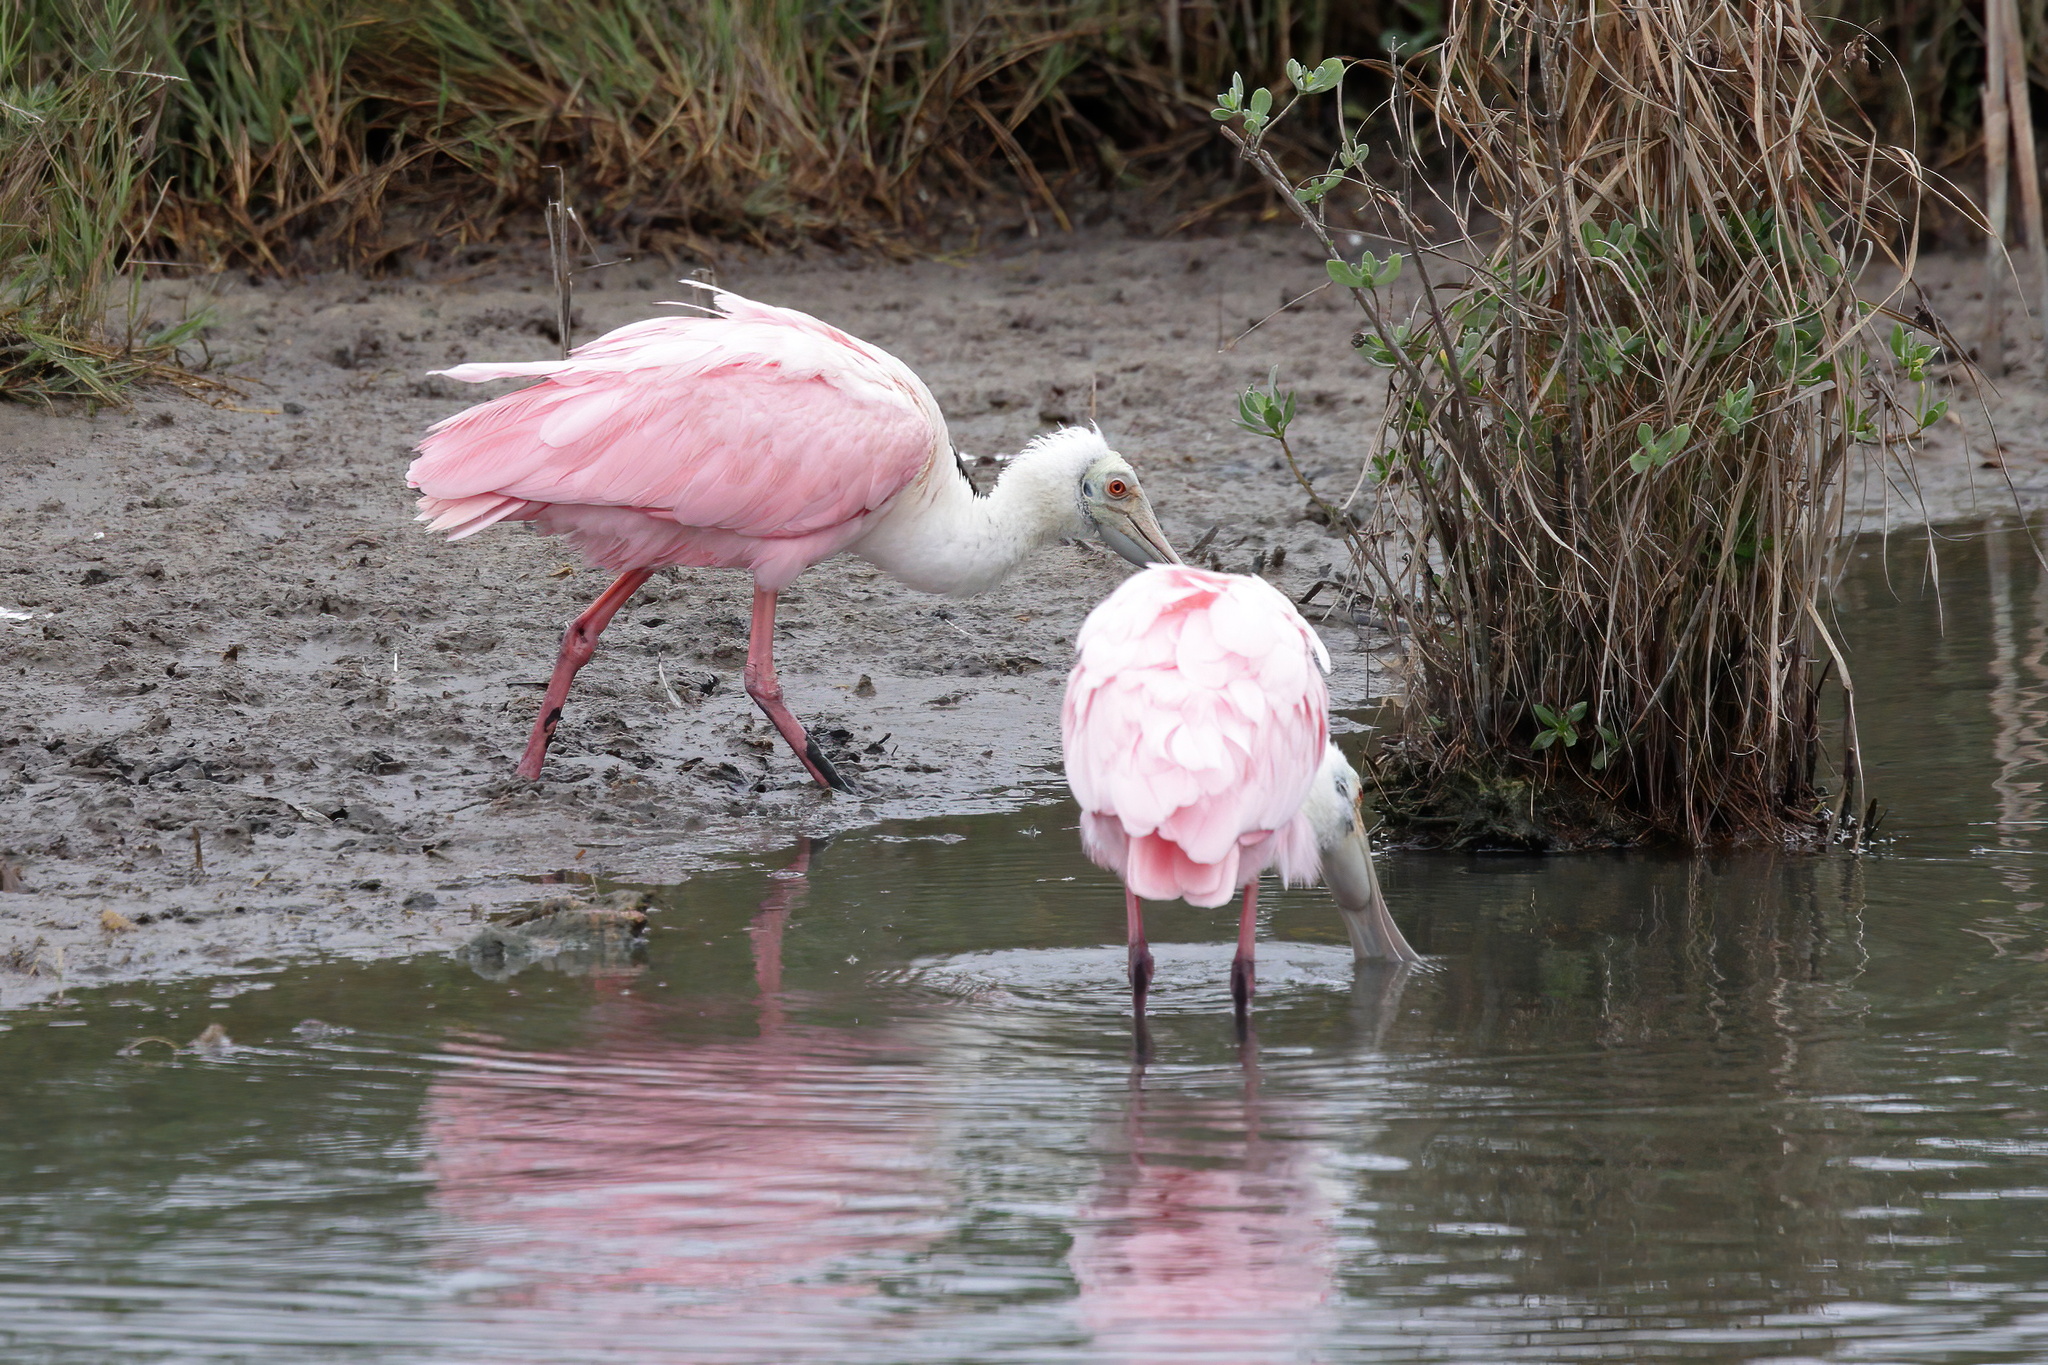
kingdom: Animalia
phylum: Chordata
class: Aves
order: Pelecaniformes
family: Threskiornithidae
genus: Platalea
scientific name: Platalea ajaja
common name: Roseate spoonbill
